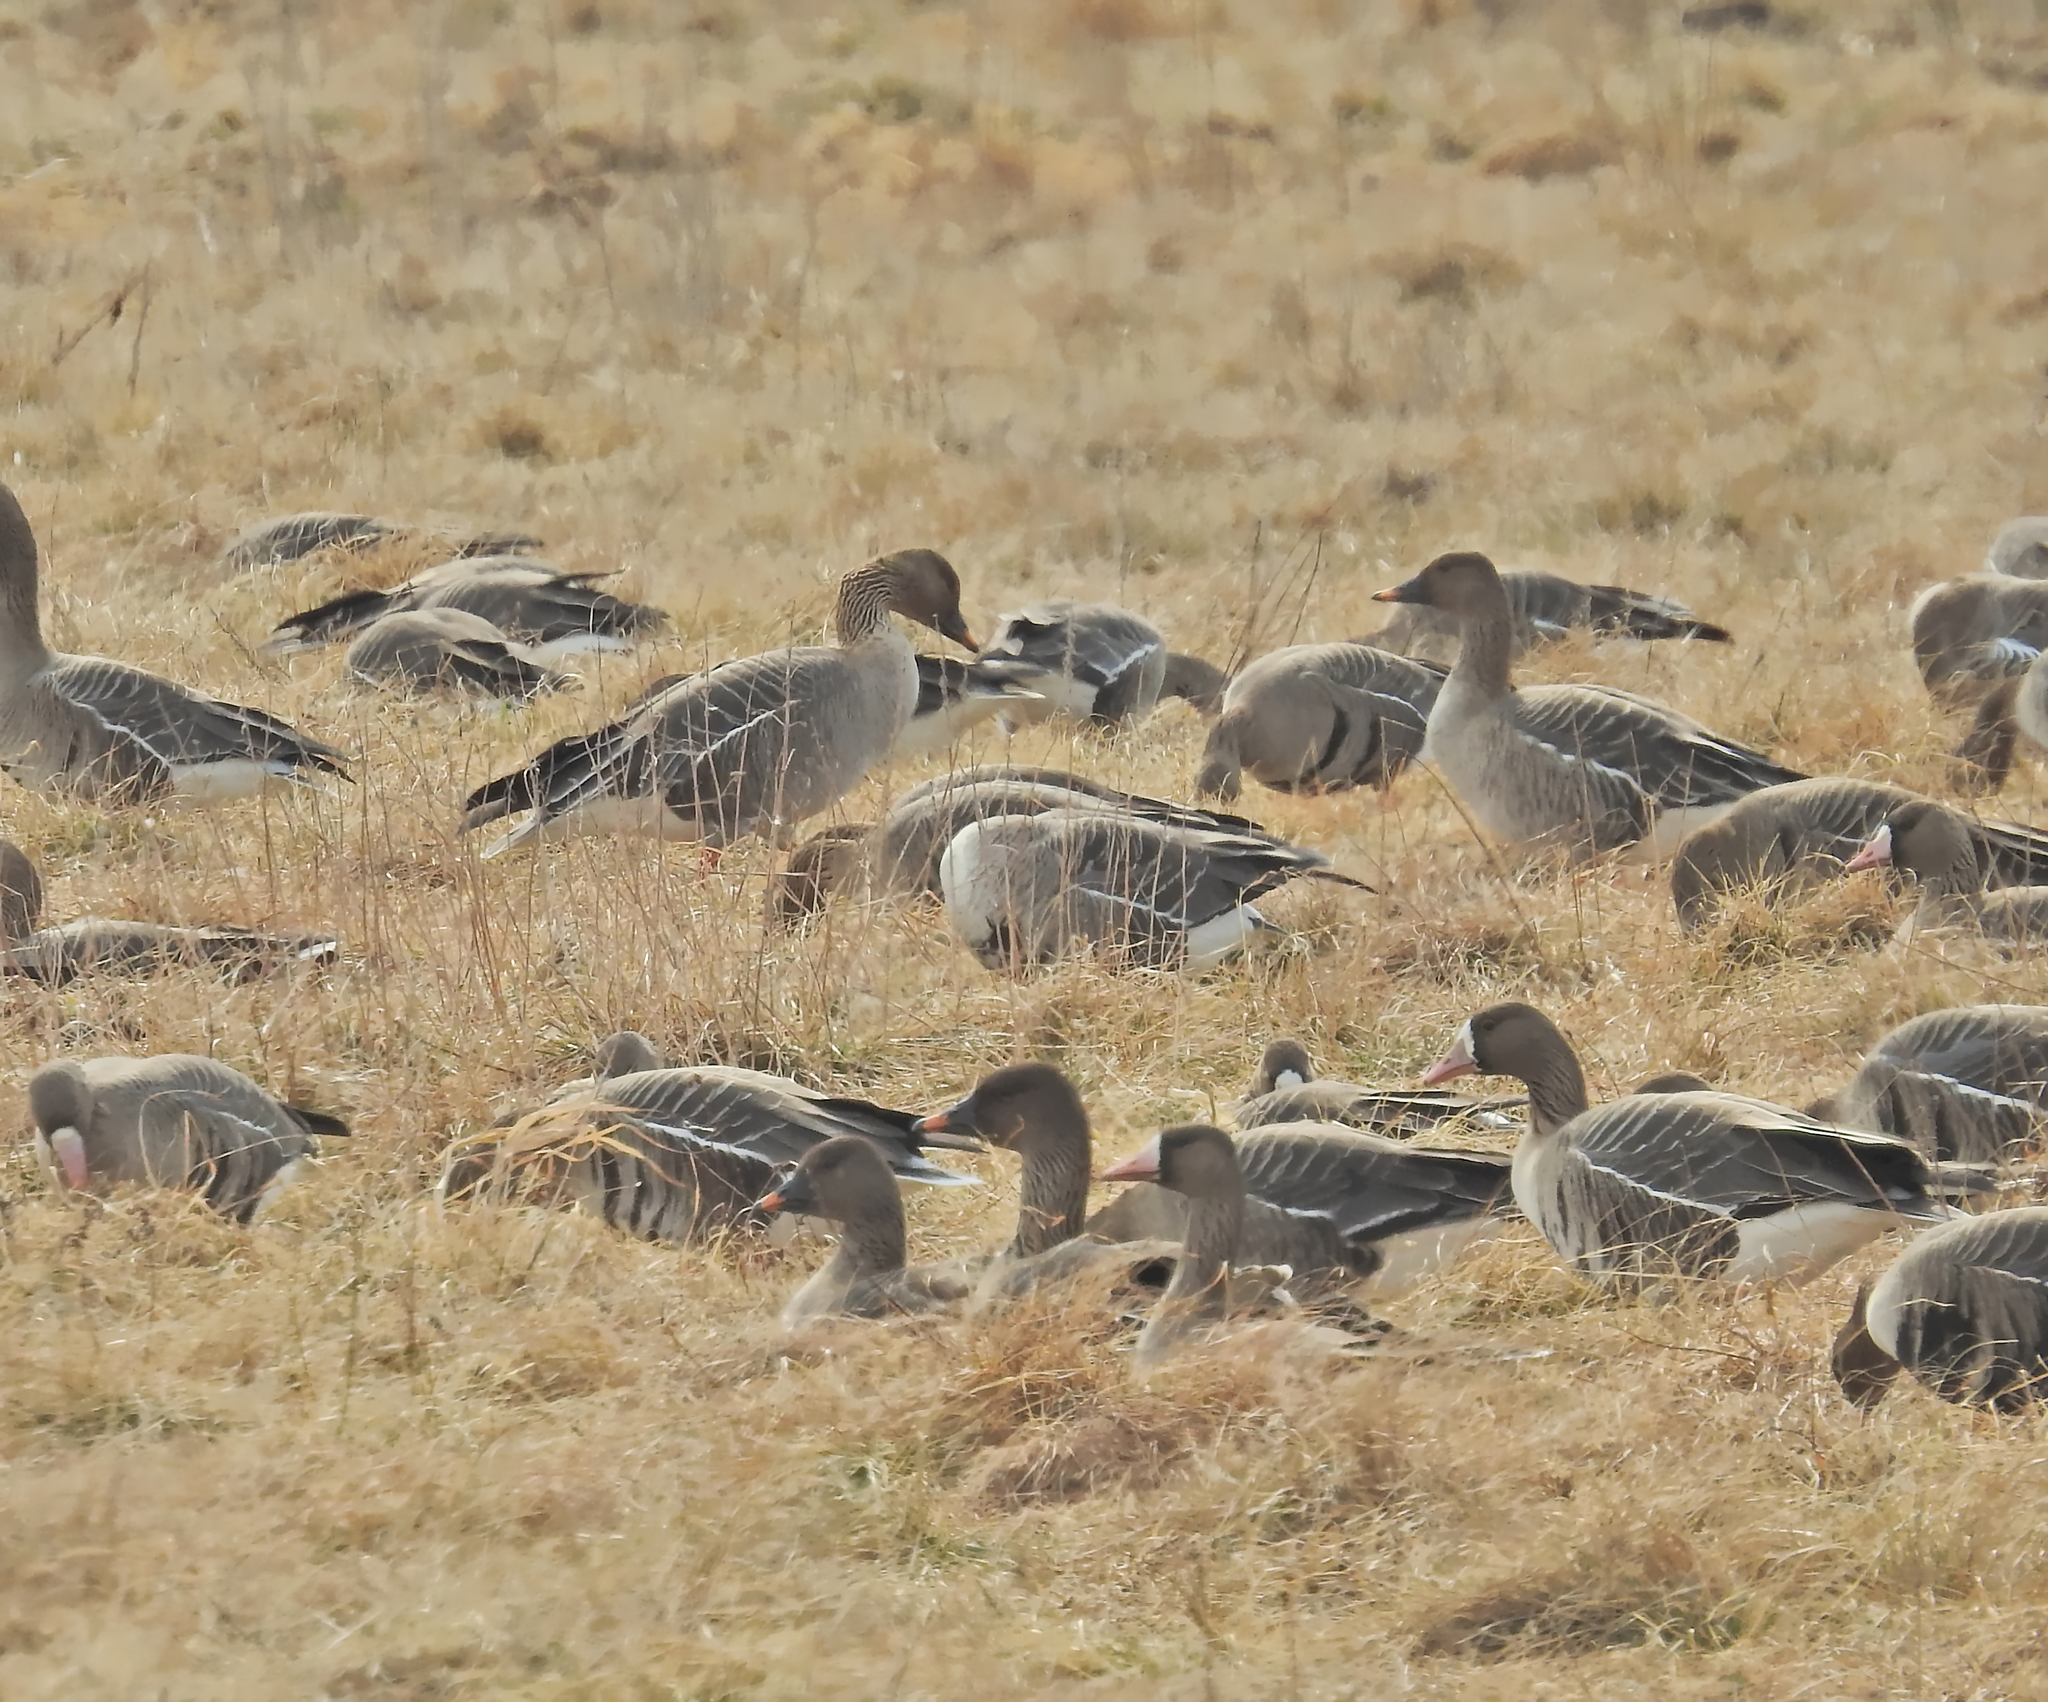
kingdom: Animalia
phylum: Chordata
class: Aves
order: Anseriformes
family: Anatidae
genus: Anser
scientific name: Anser albifrons
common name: Greater white-fronted goose
